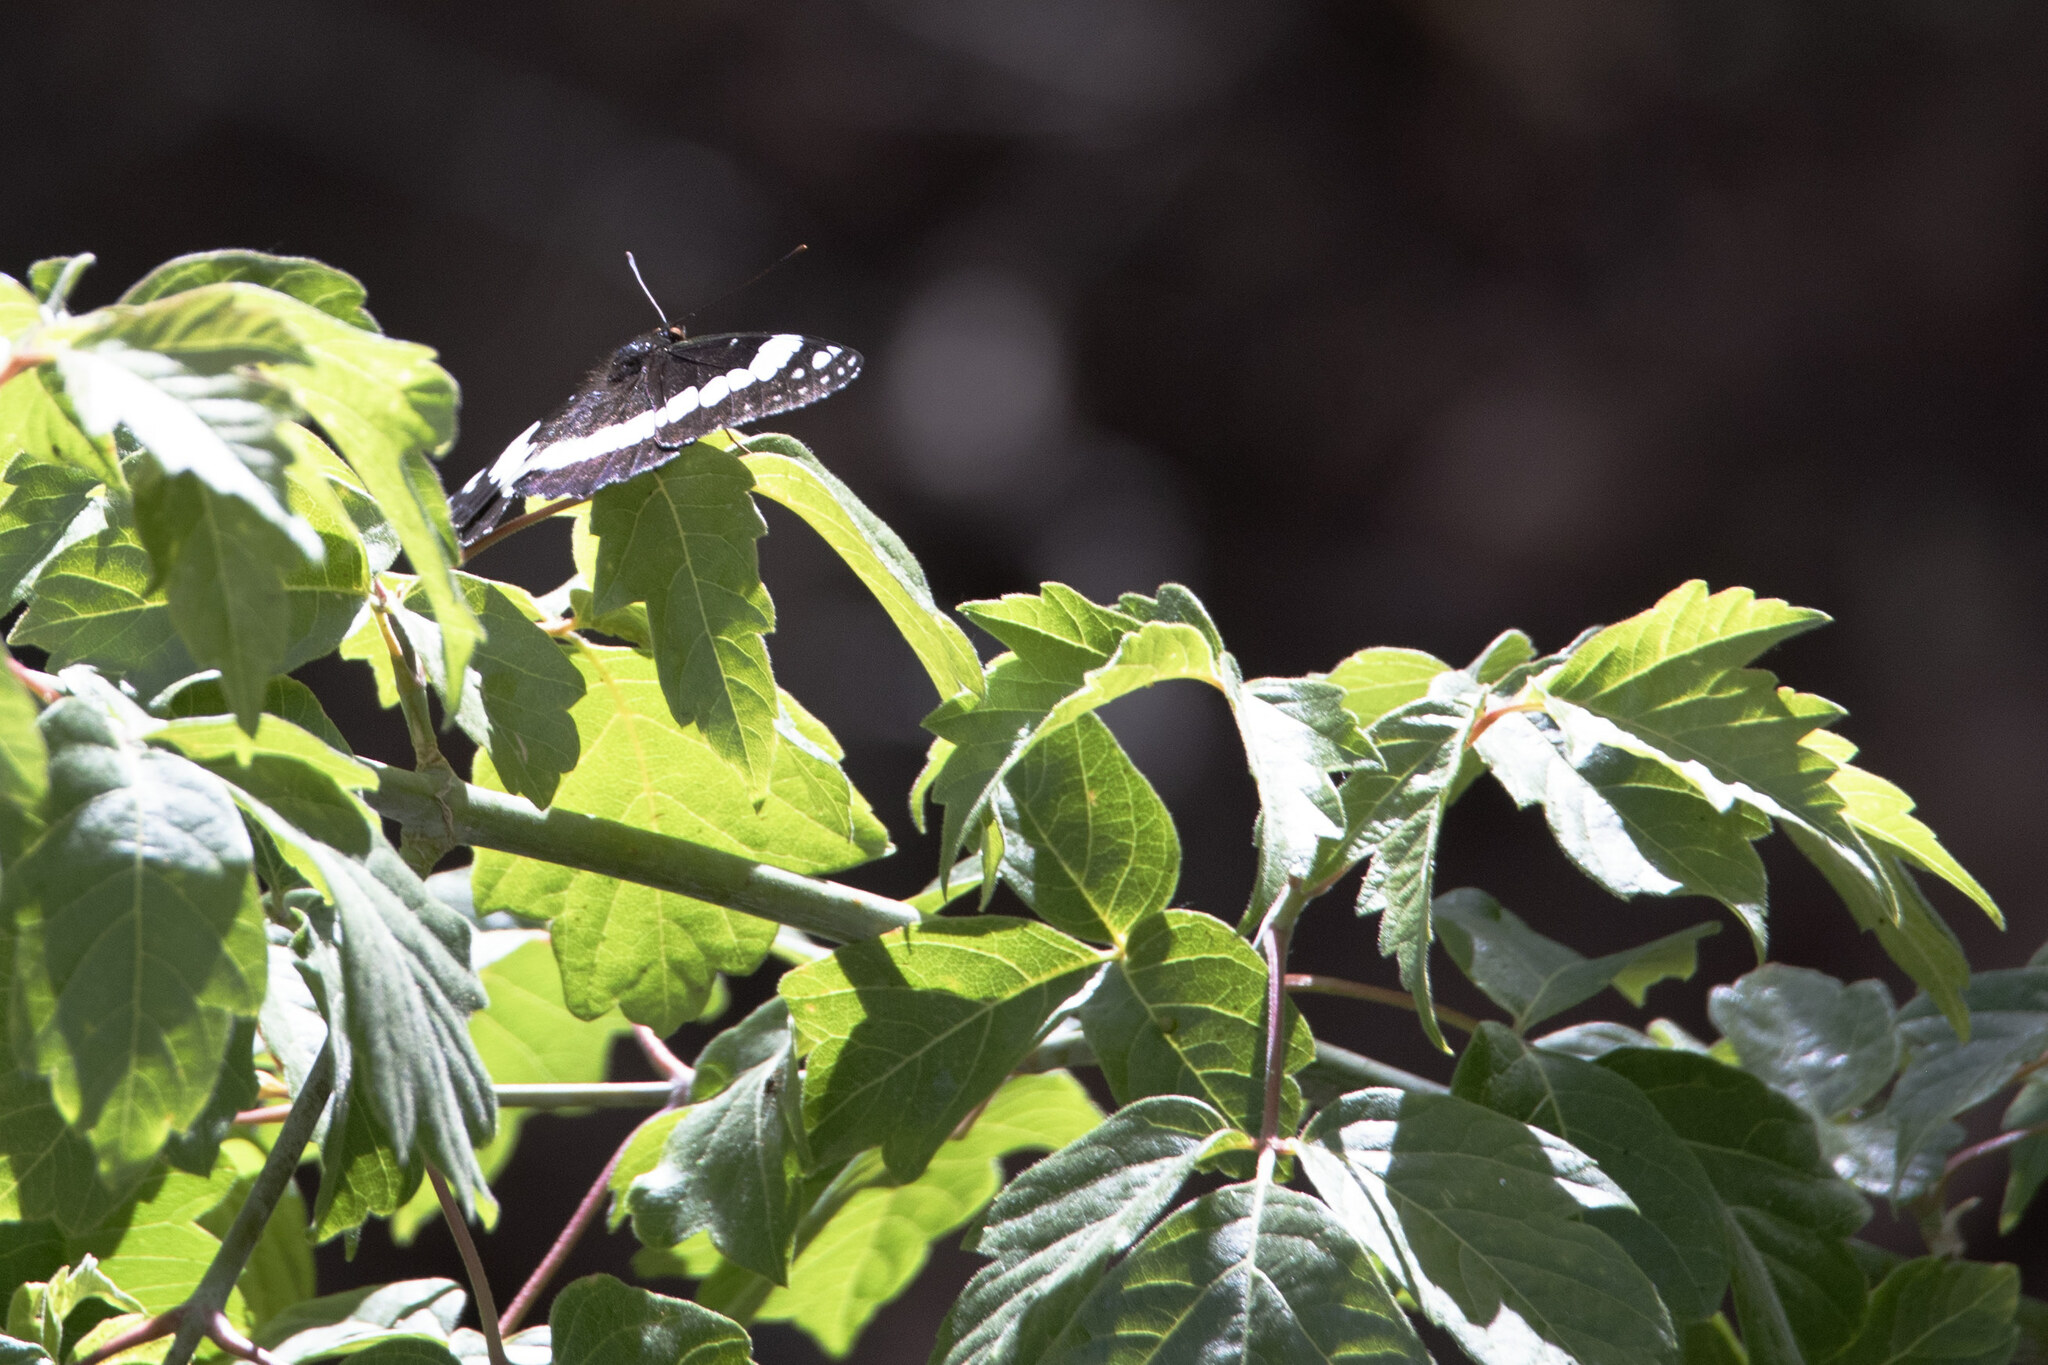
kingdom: Animalia
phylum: Arthropoda
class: Insecta
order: Lepidoptera
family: Nymphalidae
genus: Limenitis
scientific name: Limenitis weidemeyerii
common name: Weidemeyer's admiral
